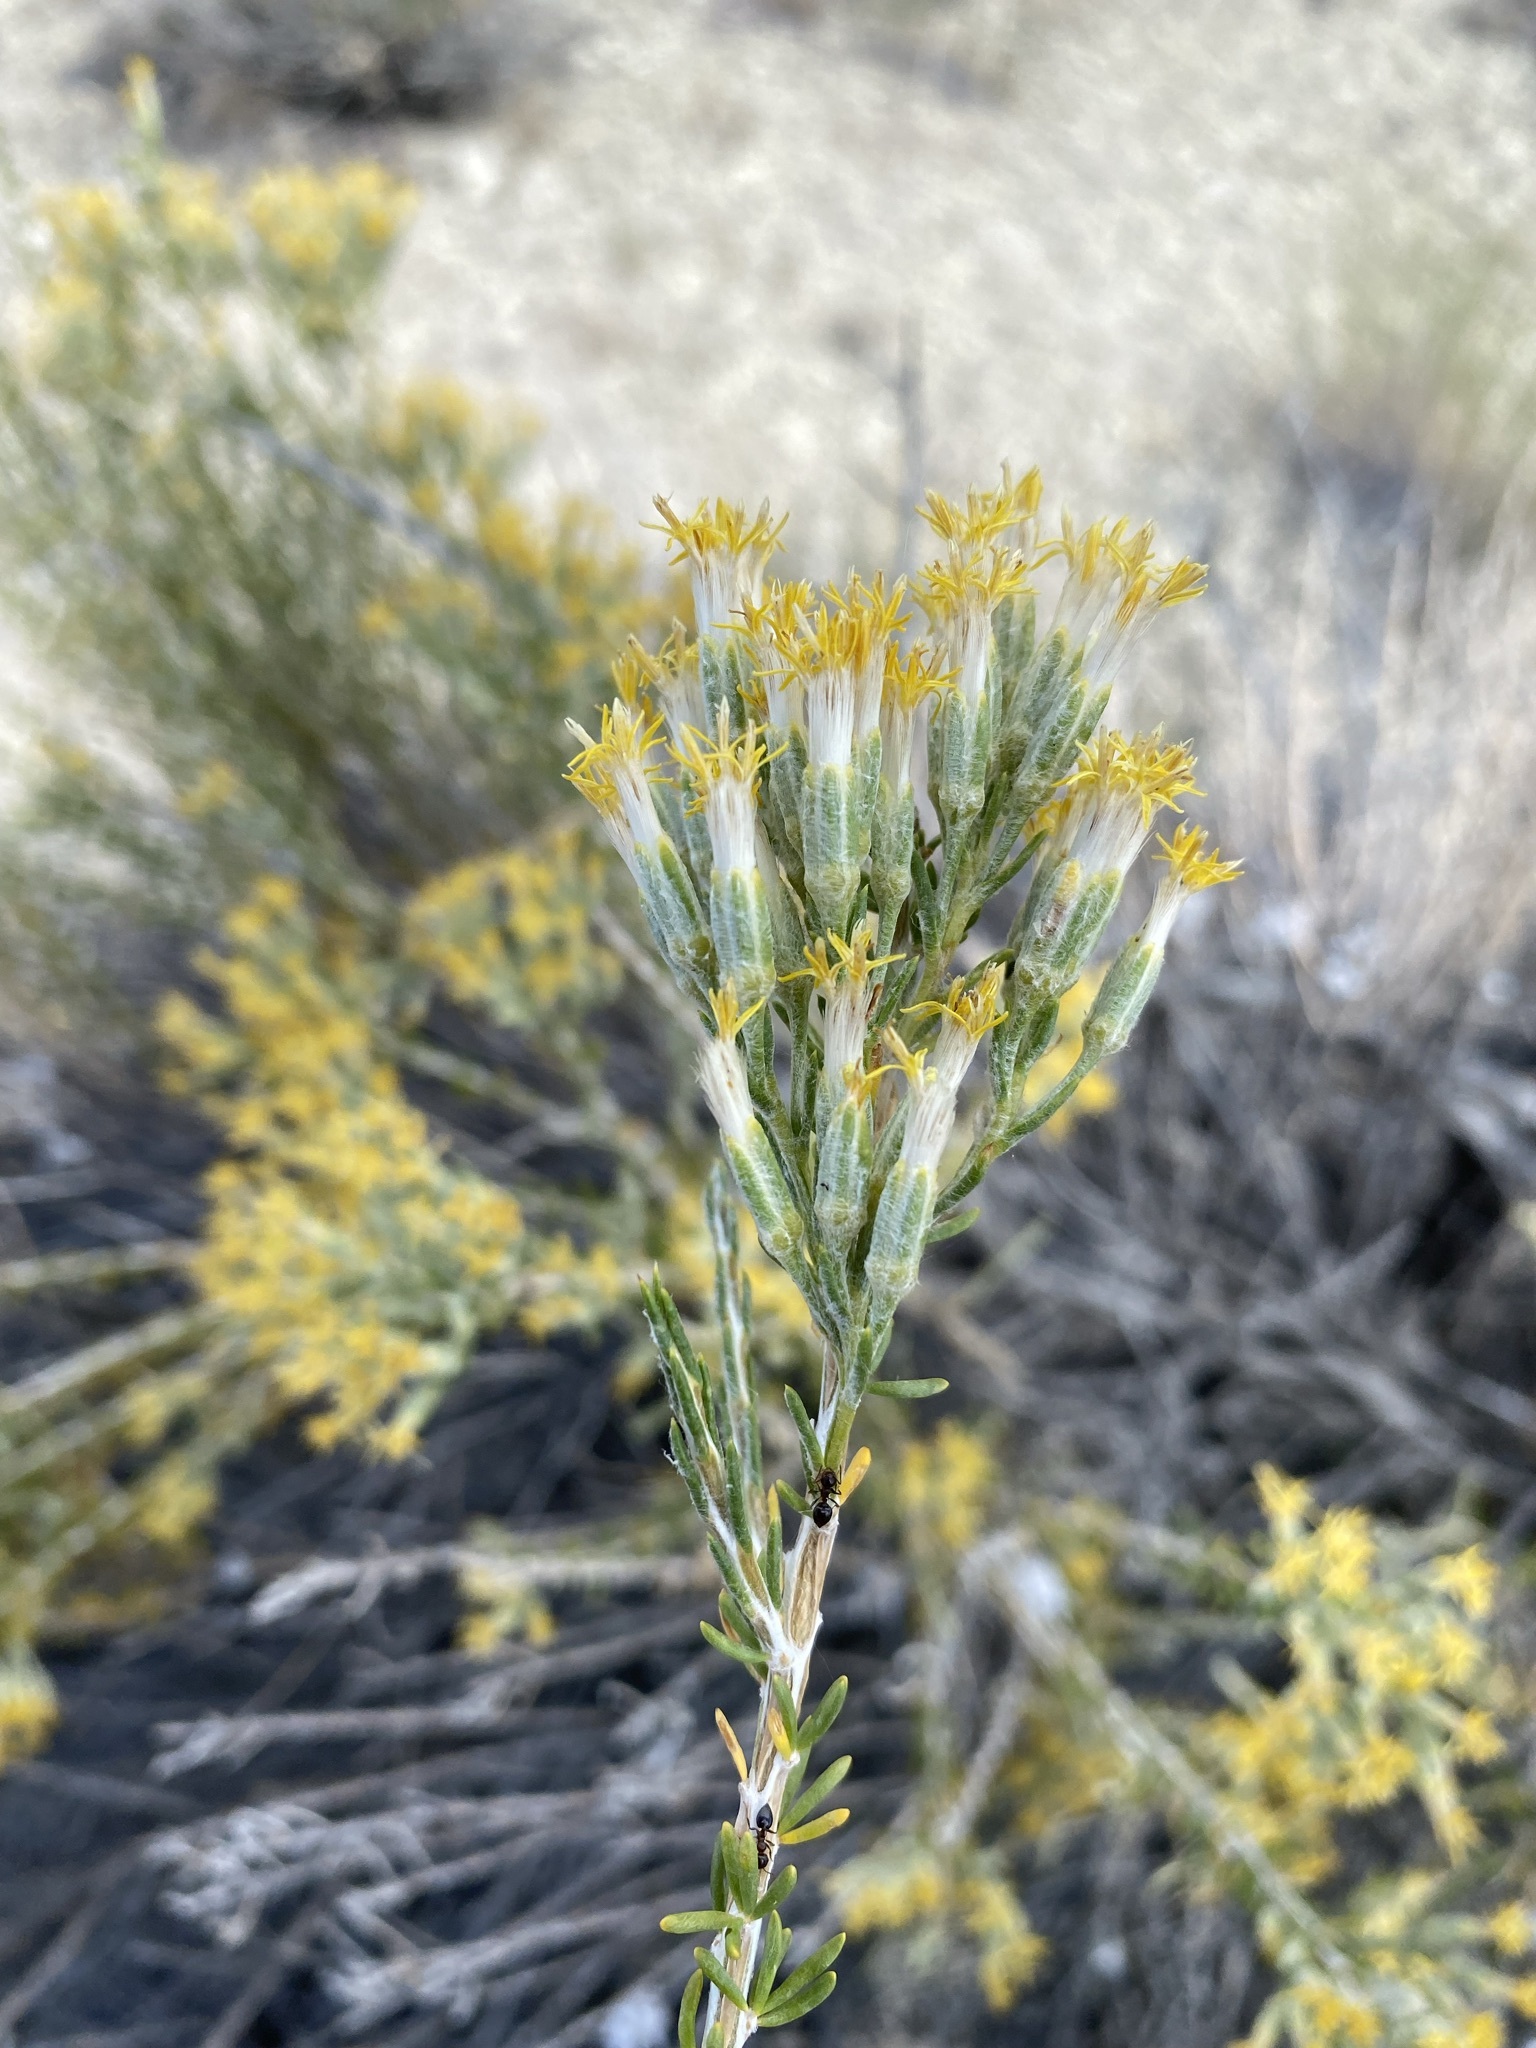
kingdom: Plantae
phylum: Tracheophyta
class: Magnoliopsida
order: Asterales
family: Asteraceae
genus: Tetradymia
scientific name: Tetradymia glabrata
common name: Smooth tetradymia
